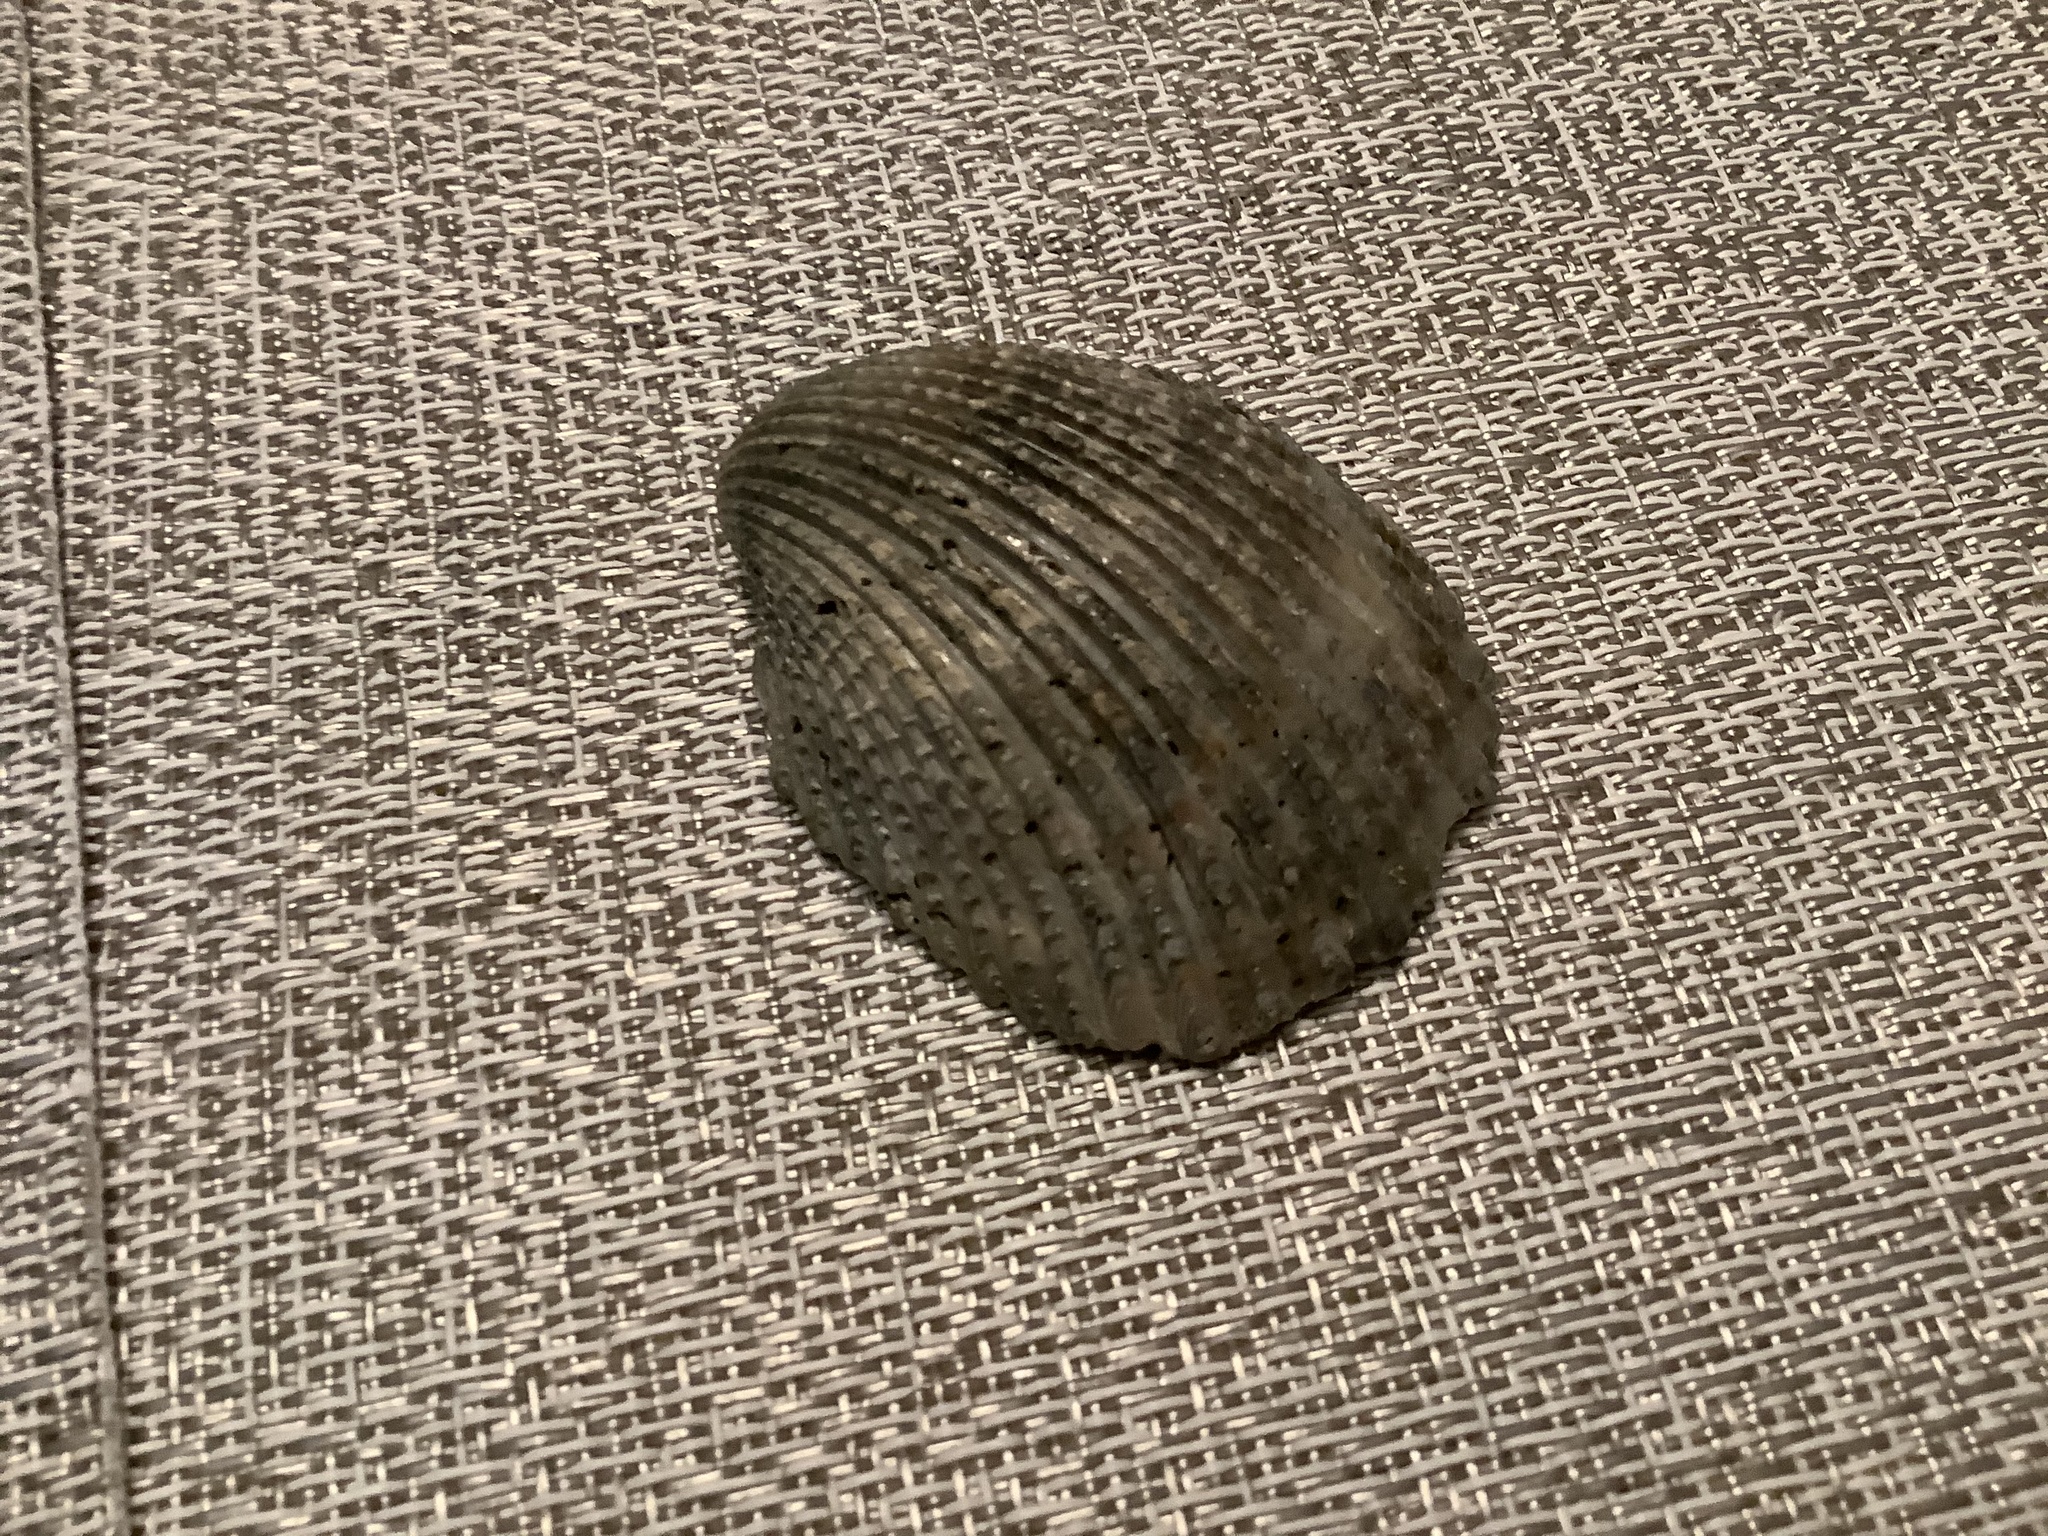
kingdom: Animalia
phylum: Mollusca
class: Bivalvia
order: Cardiida
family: Cardiidae
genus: Trachycardium
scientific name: Trachycardium egmontianum
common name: Florida pricklycockle
